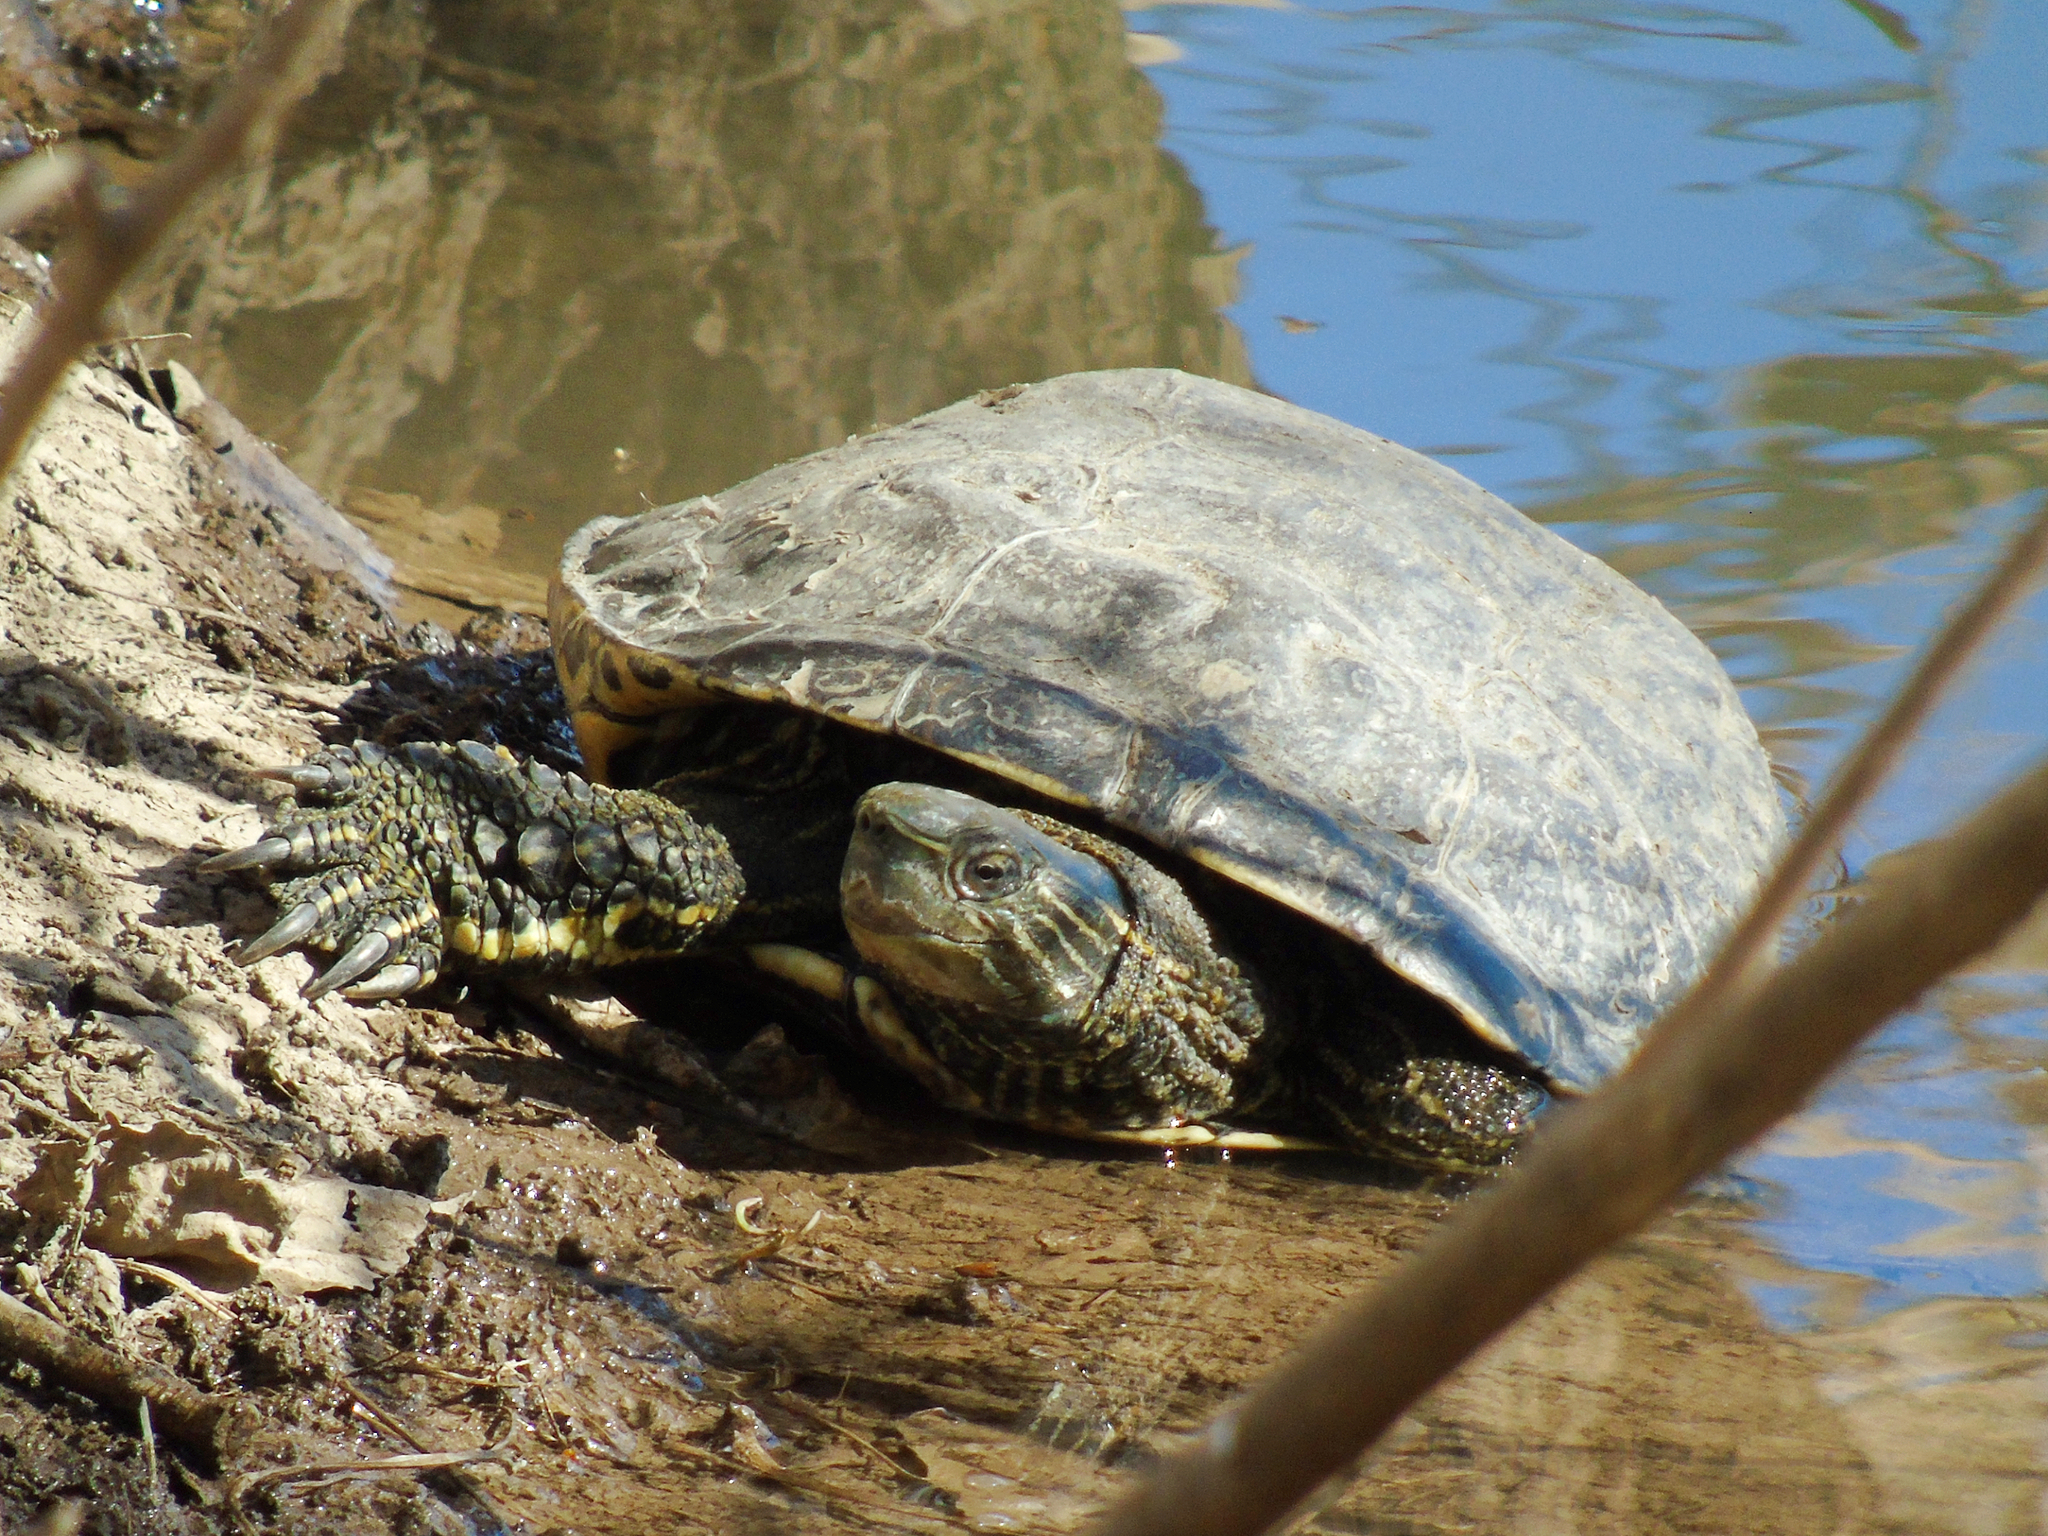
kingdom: Animalia
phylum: Chordata
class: Testudines
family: Geoemydidae
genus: Mauremys
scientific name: Mauremys caspica
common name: Caspian turtle
